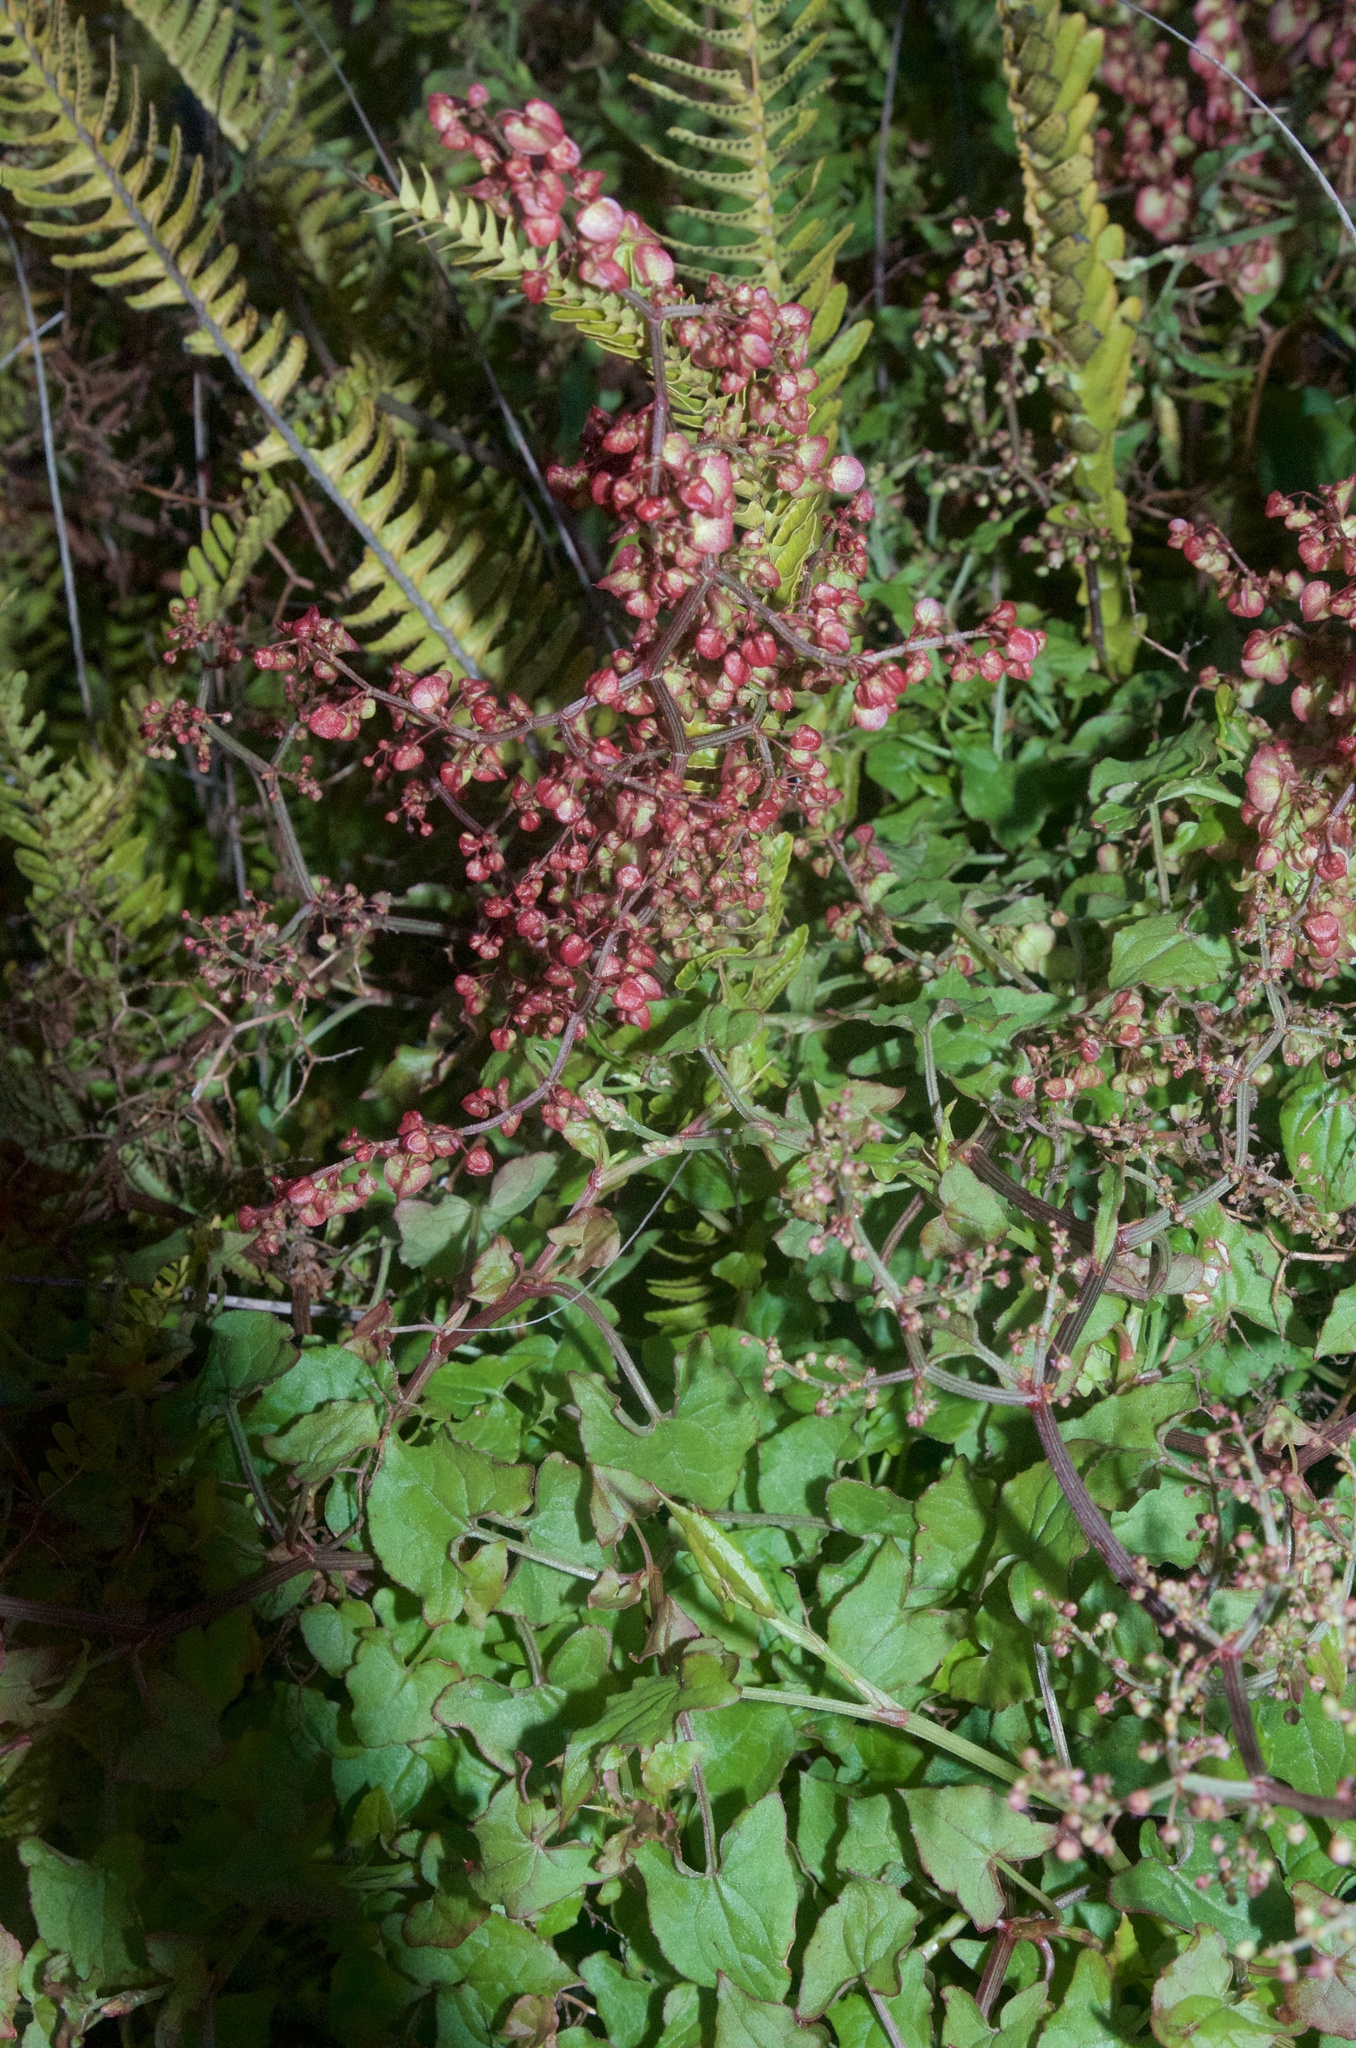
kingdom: Plantae
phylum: Tracheophyta
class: Magnoliopsida
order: Caryophyllales
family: Polygonaceae
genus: Rumex
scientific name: Rumex sagittatus
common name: Climbing dock
